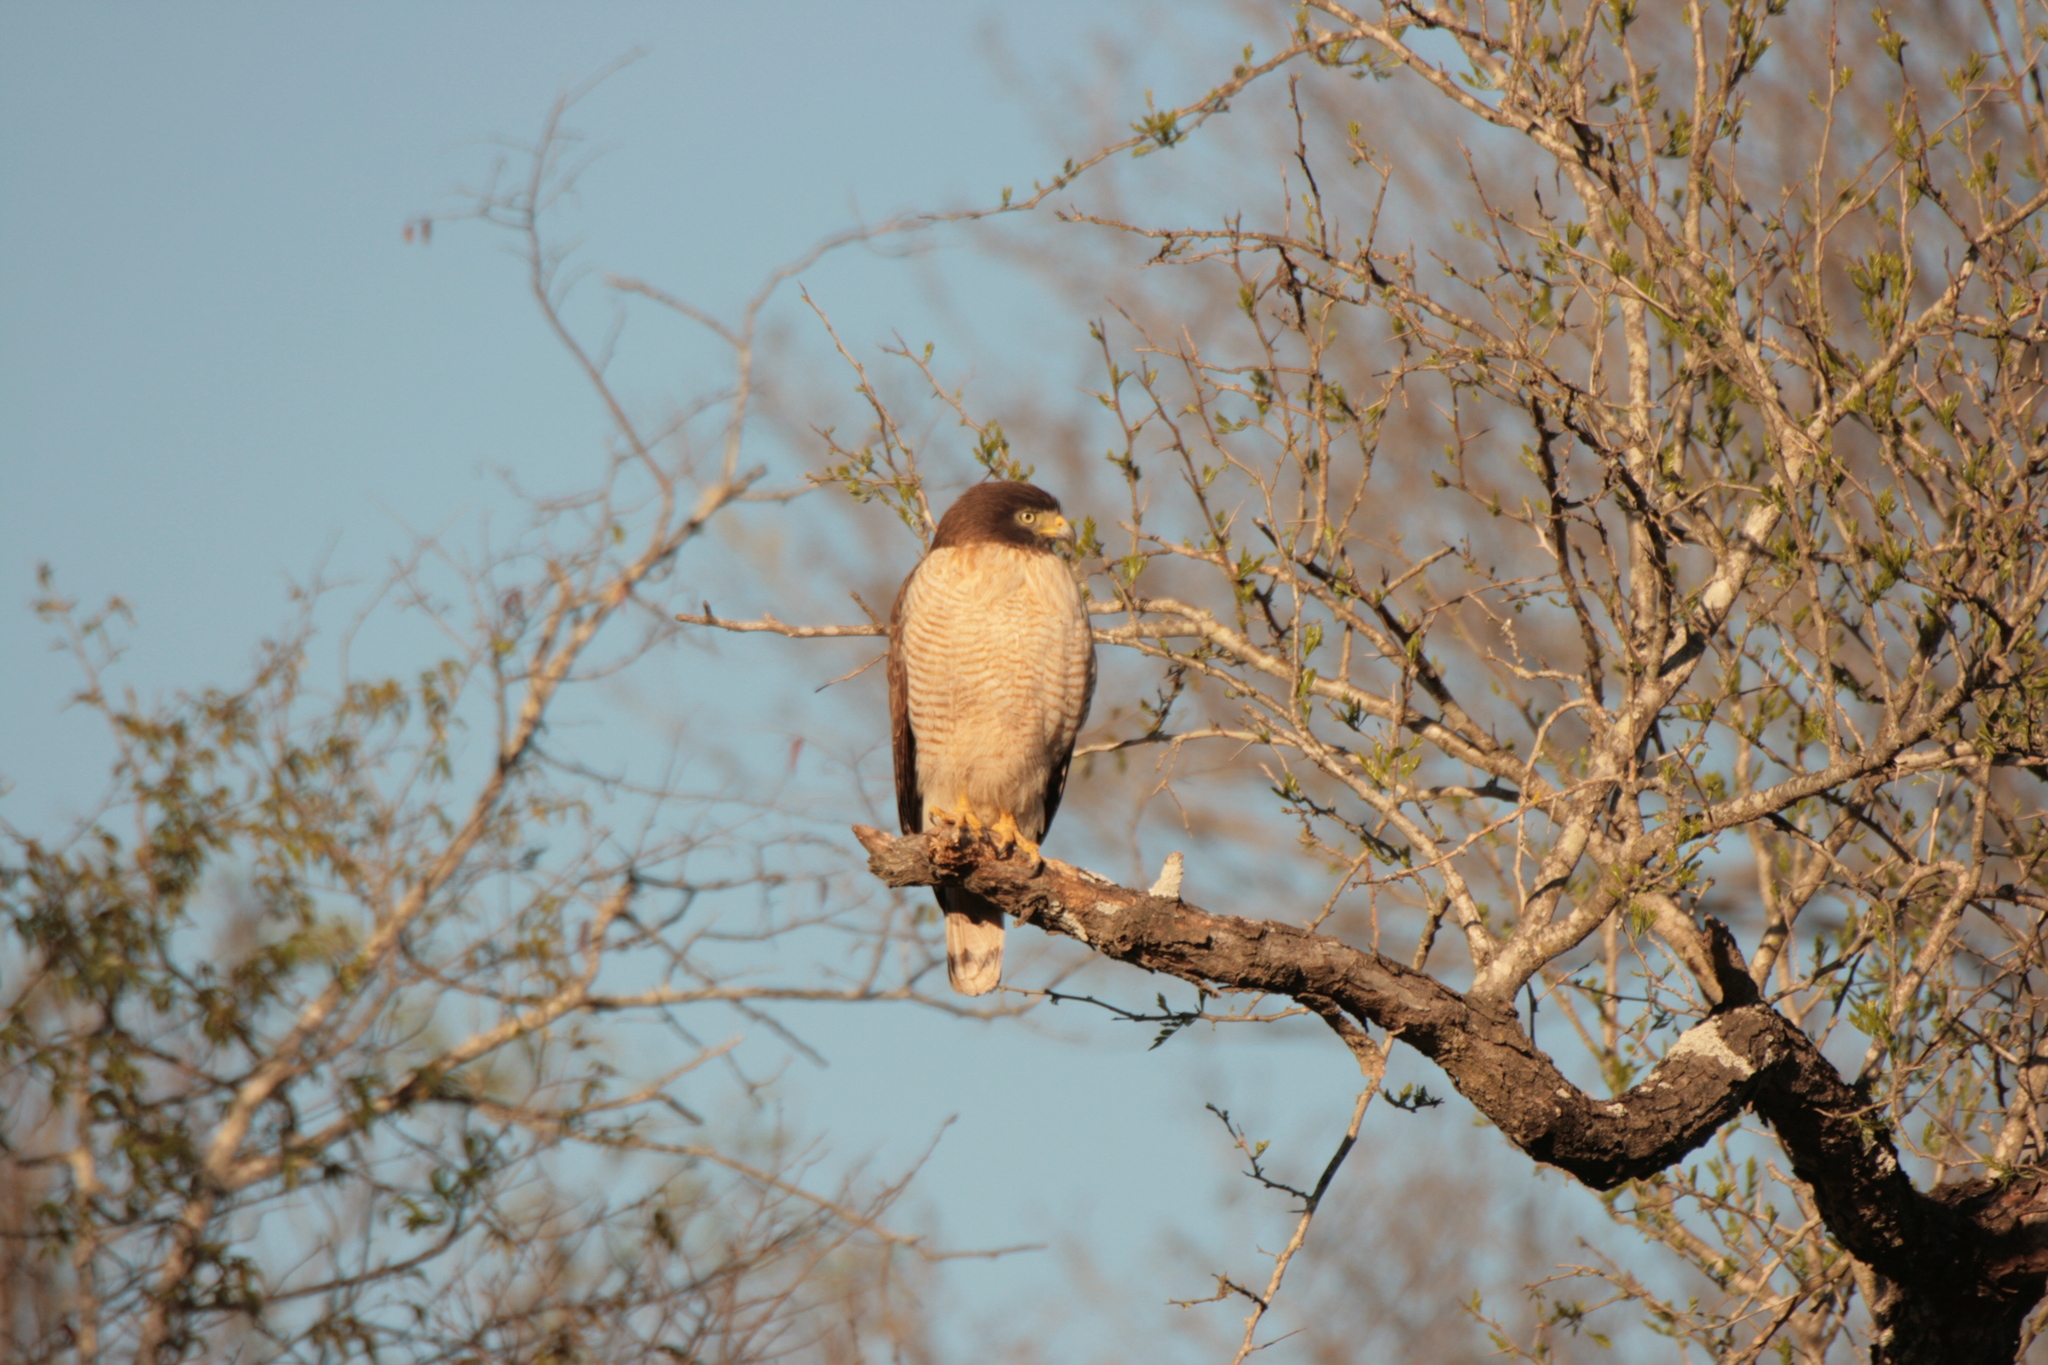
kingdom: Animalia
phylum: Chordata
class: Aves
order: Accipitriformes
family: Accipitridae
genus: Rupornis
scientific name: Rupornis magnirostris
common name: Roadside hawk
